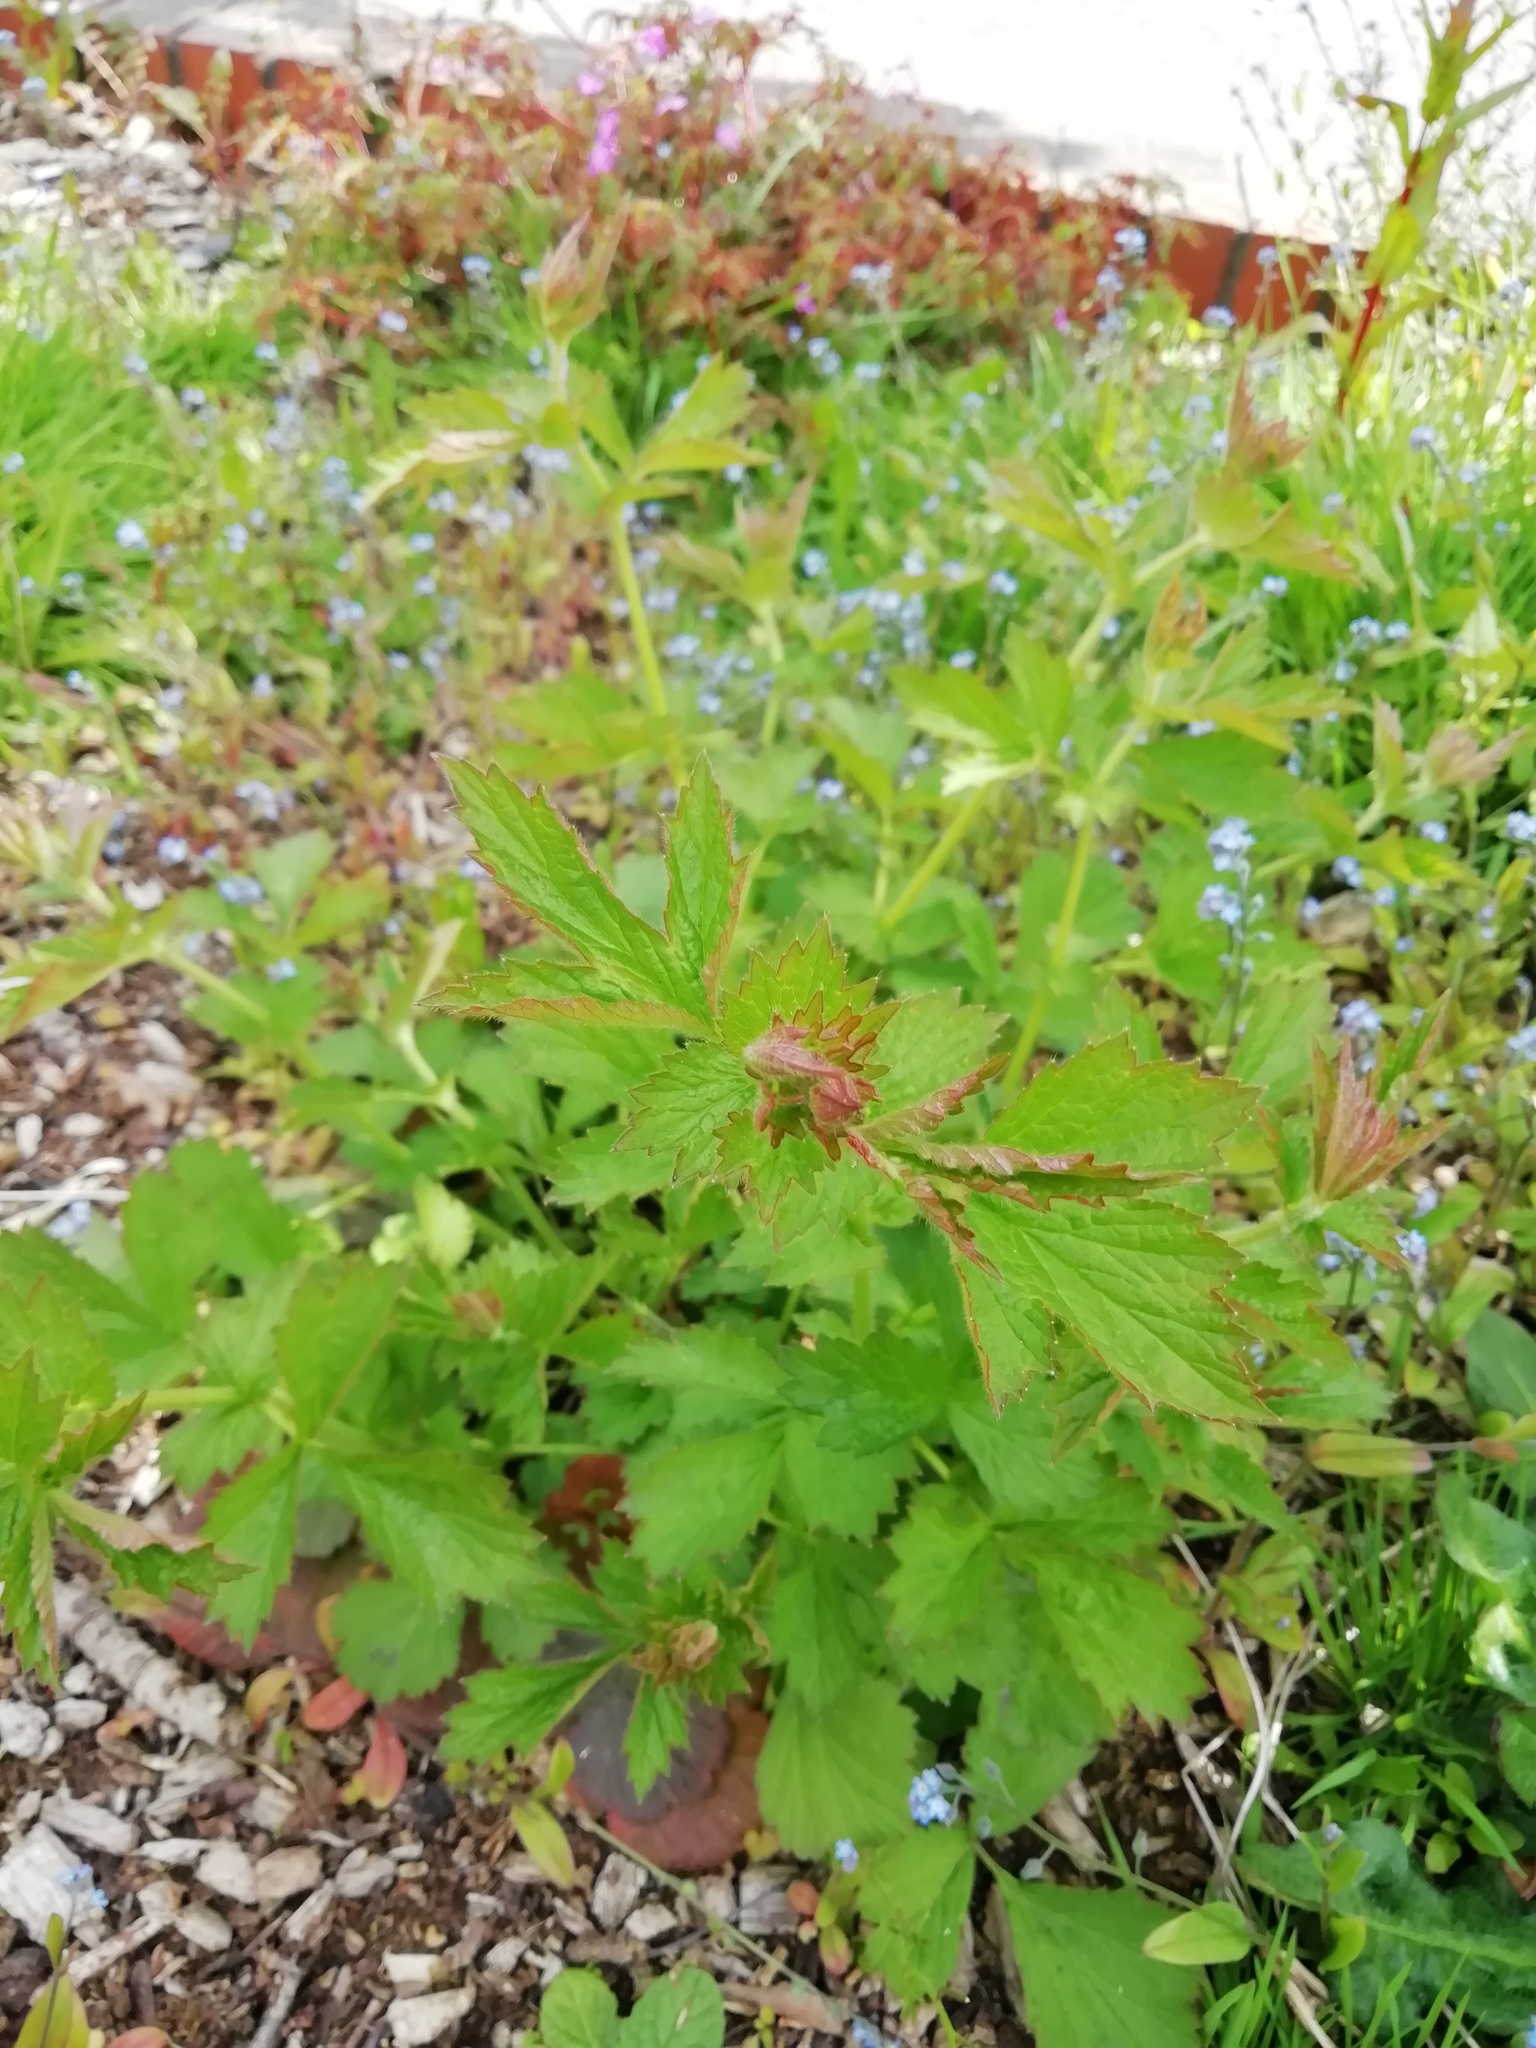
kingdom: Plantae
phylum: Tracheophyta
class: Magnoliopsida
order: Rosales
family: Rosaceae
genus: Geum
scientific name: Geum urbanum
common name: Wood avens
